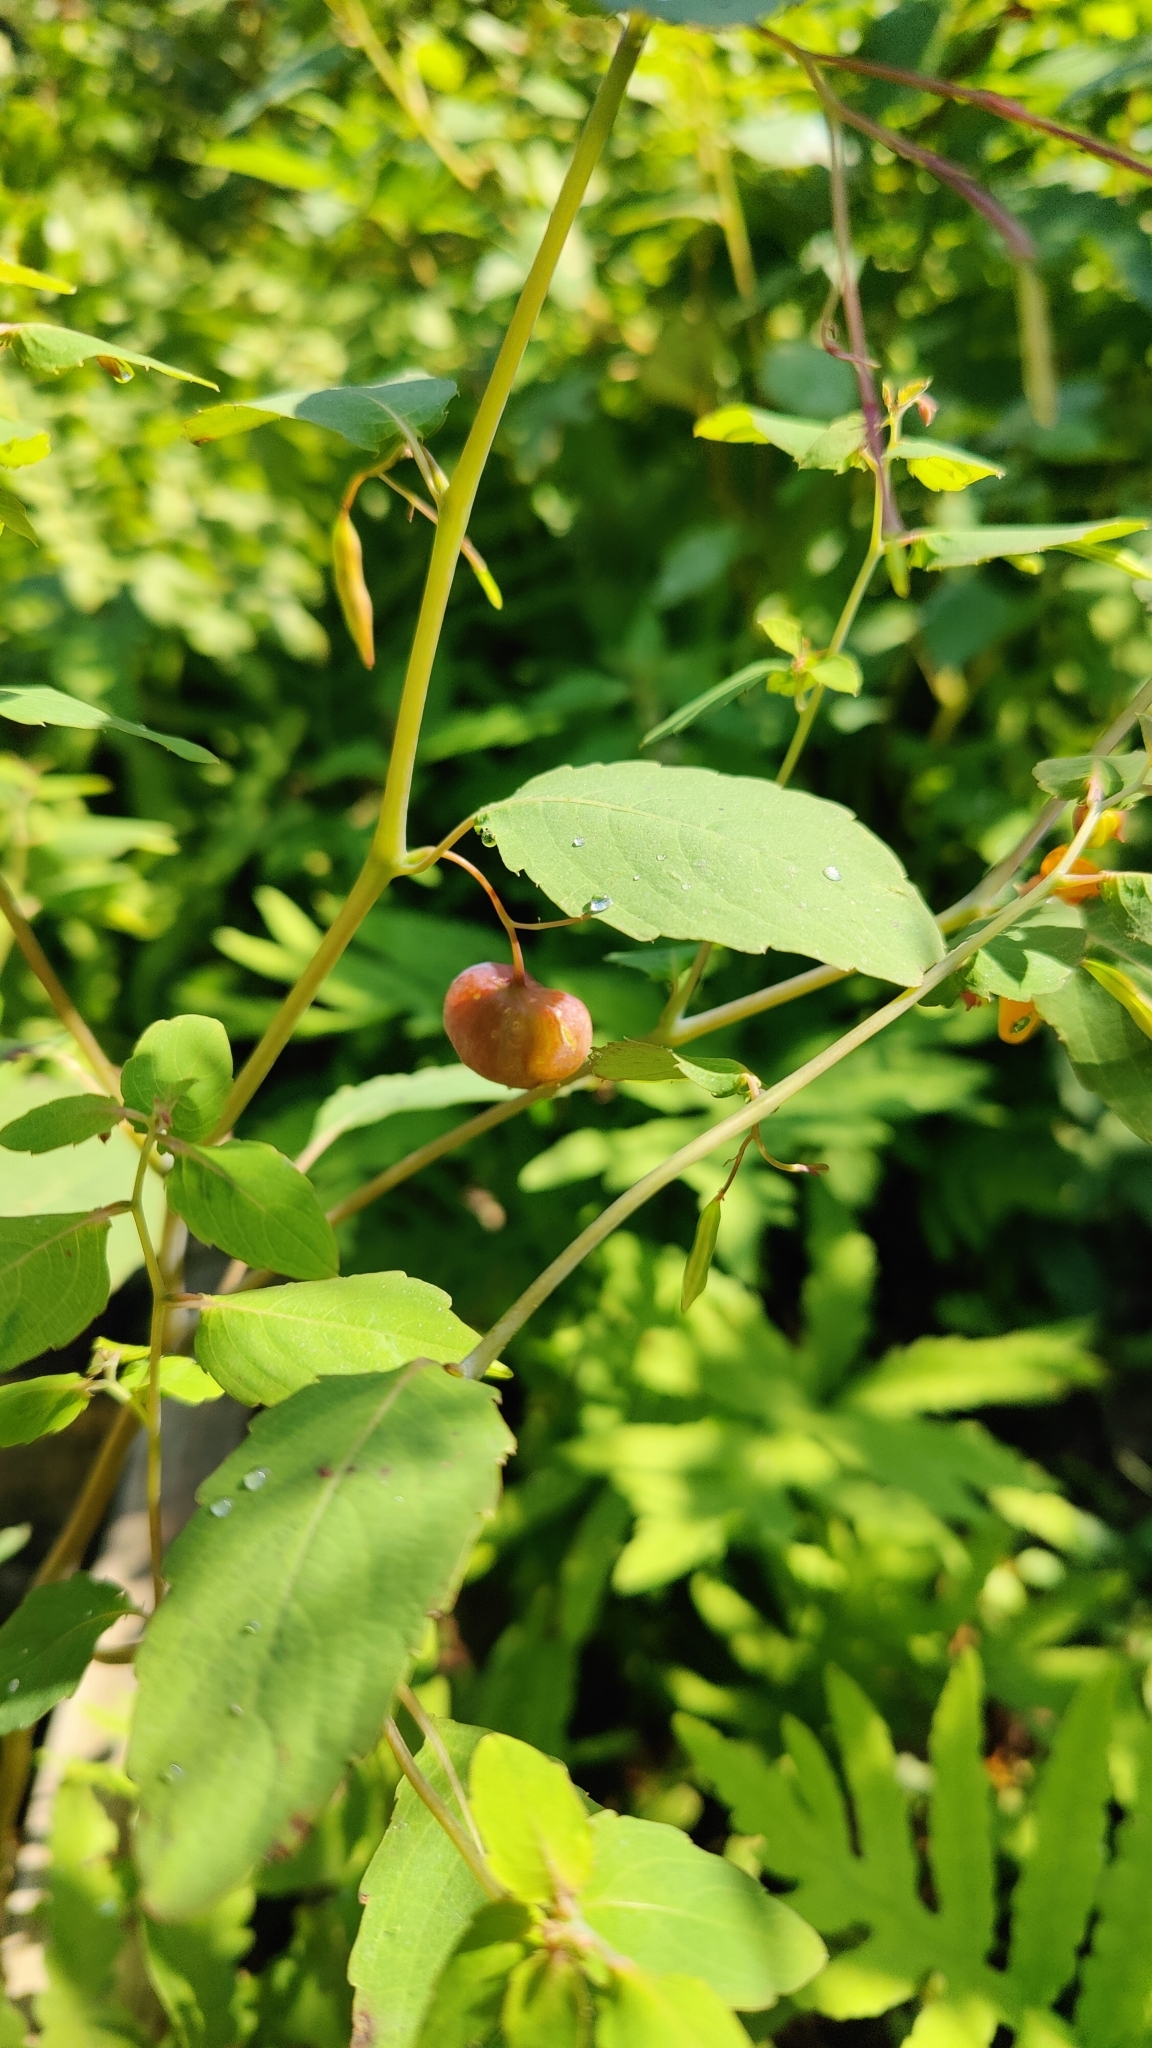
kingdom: Plantae
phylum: Tracheophyta
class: Magnoliopsida
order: Ericales
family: Balsaminaceae
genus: Impatiens
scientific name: Impatiens capensis
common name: Orange balsam
